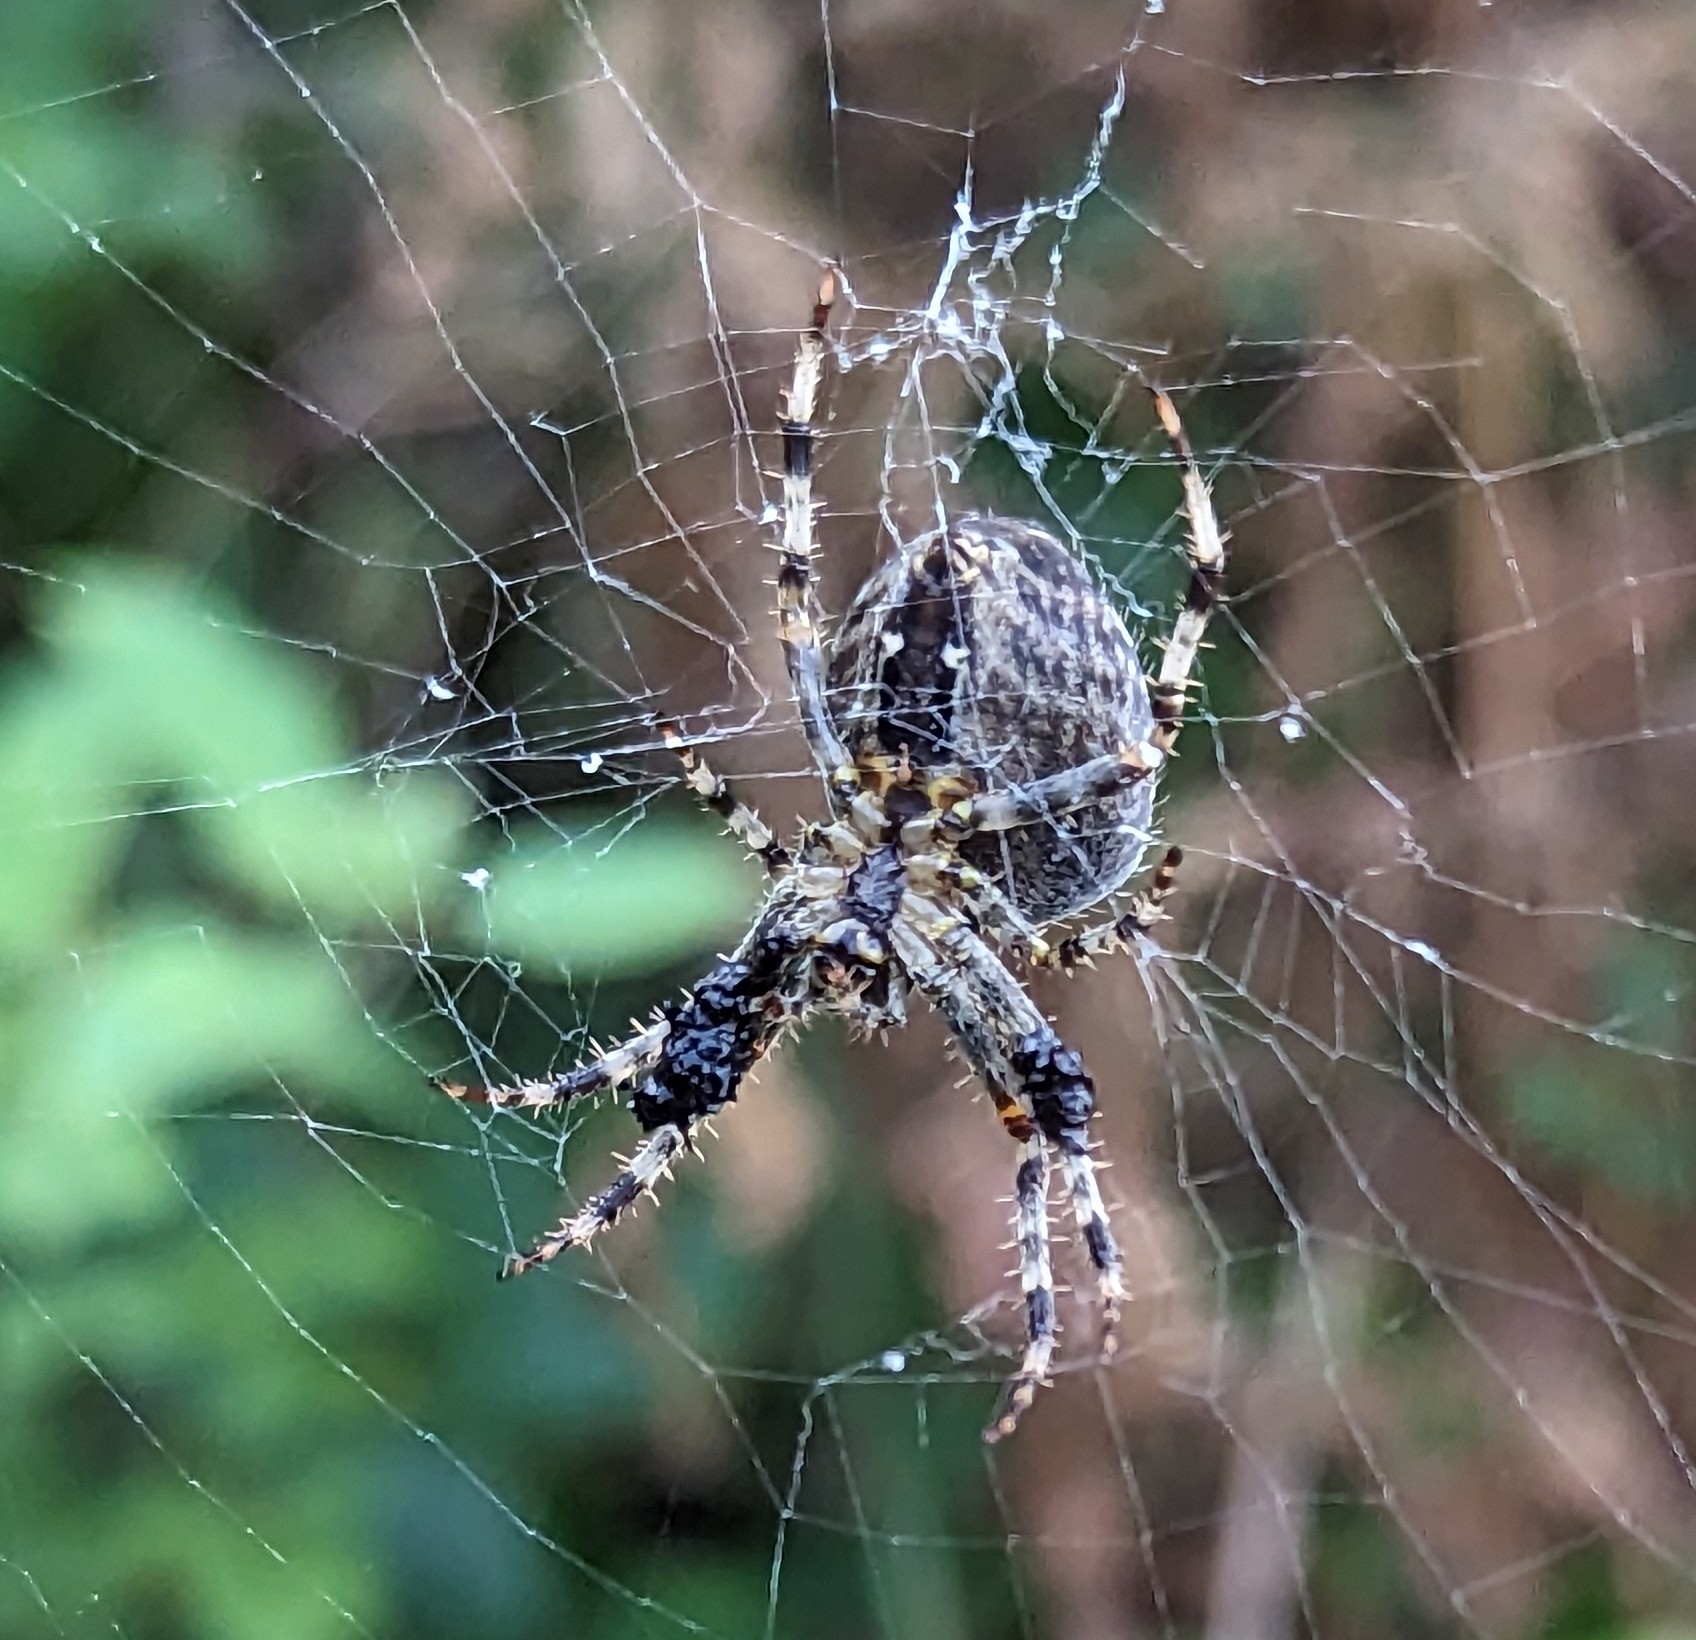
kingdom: Animalia
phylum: Arthropoda
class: Arachnida
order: Araneae
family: Araneidae
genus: Araneus
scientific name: Araneus diadematus
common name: Cross orbweaver
